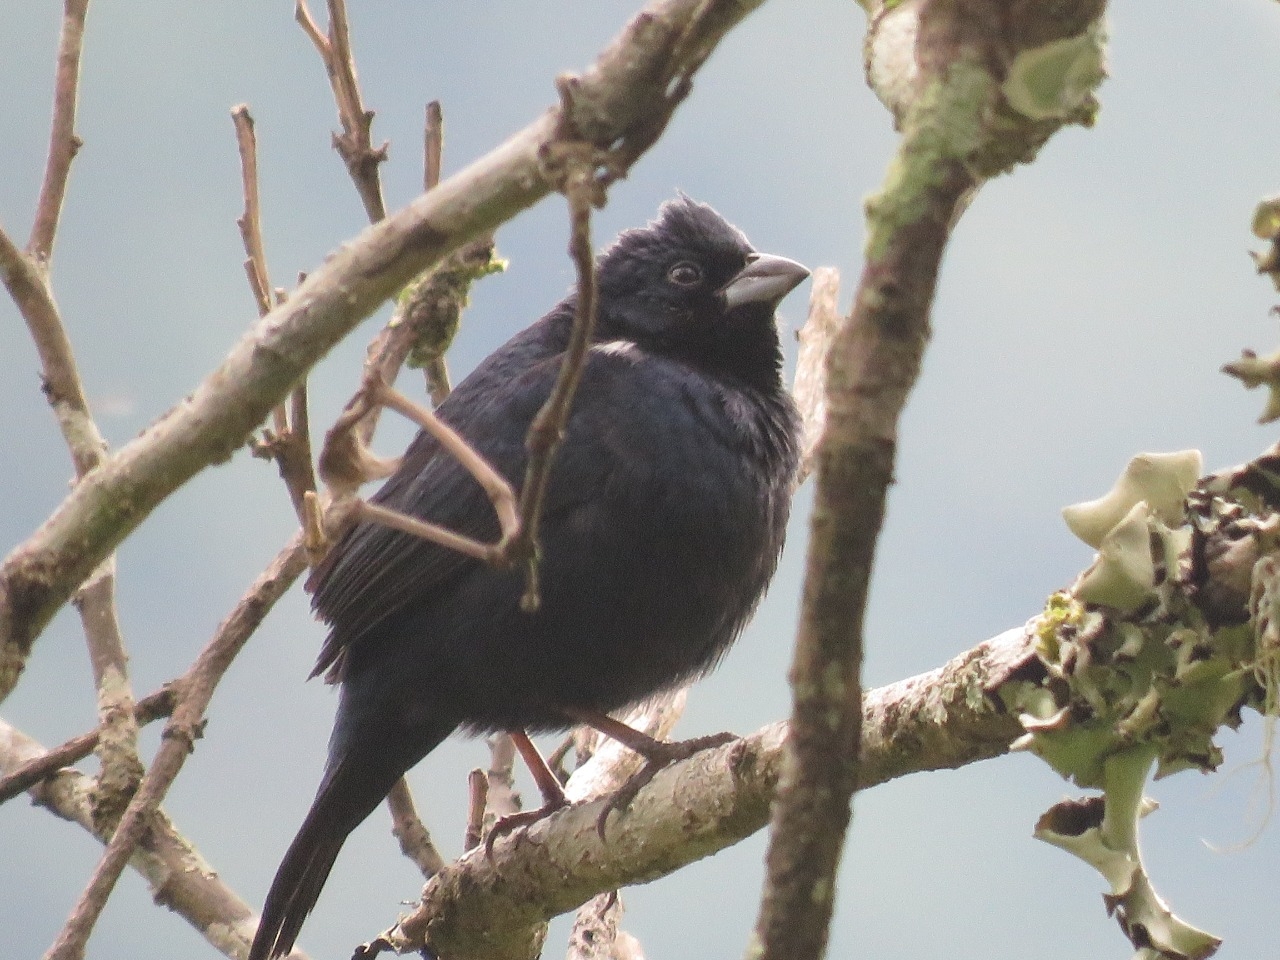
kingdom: Animalia
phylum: Chordata
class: Aves
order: Passeriformes
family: Thraupidae
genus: Volatinia
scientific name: Volatinia jacarina
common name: Blue-black grassquit
